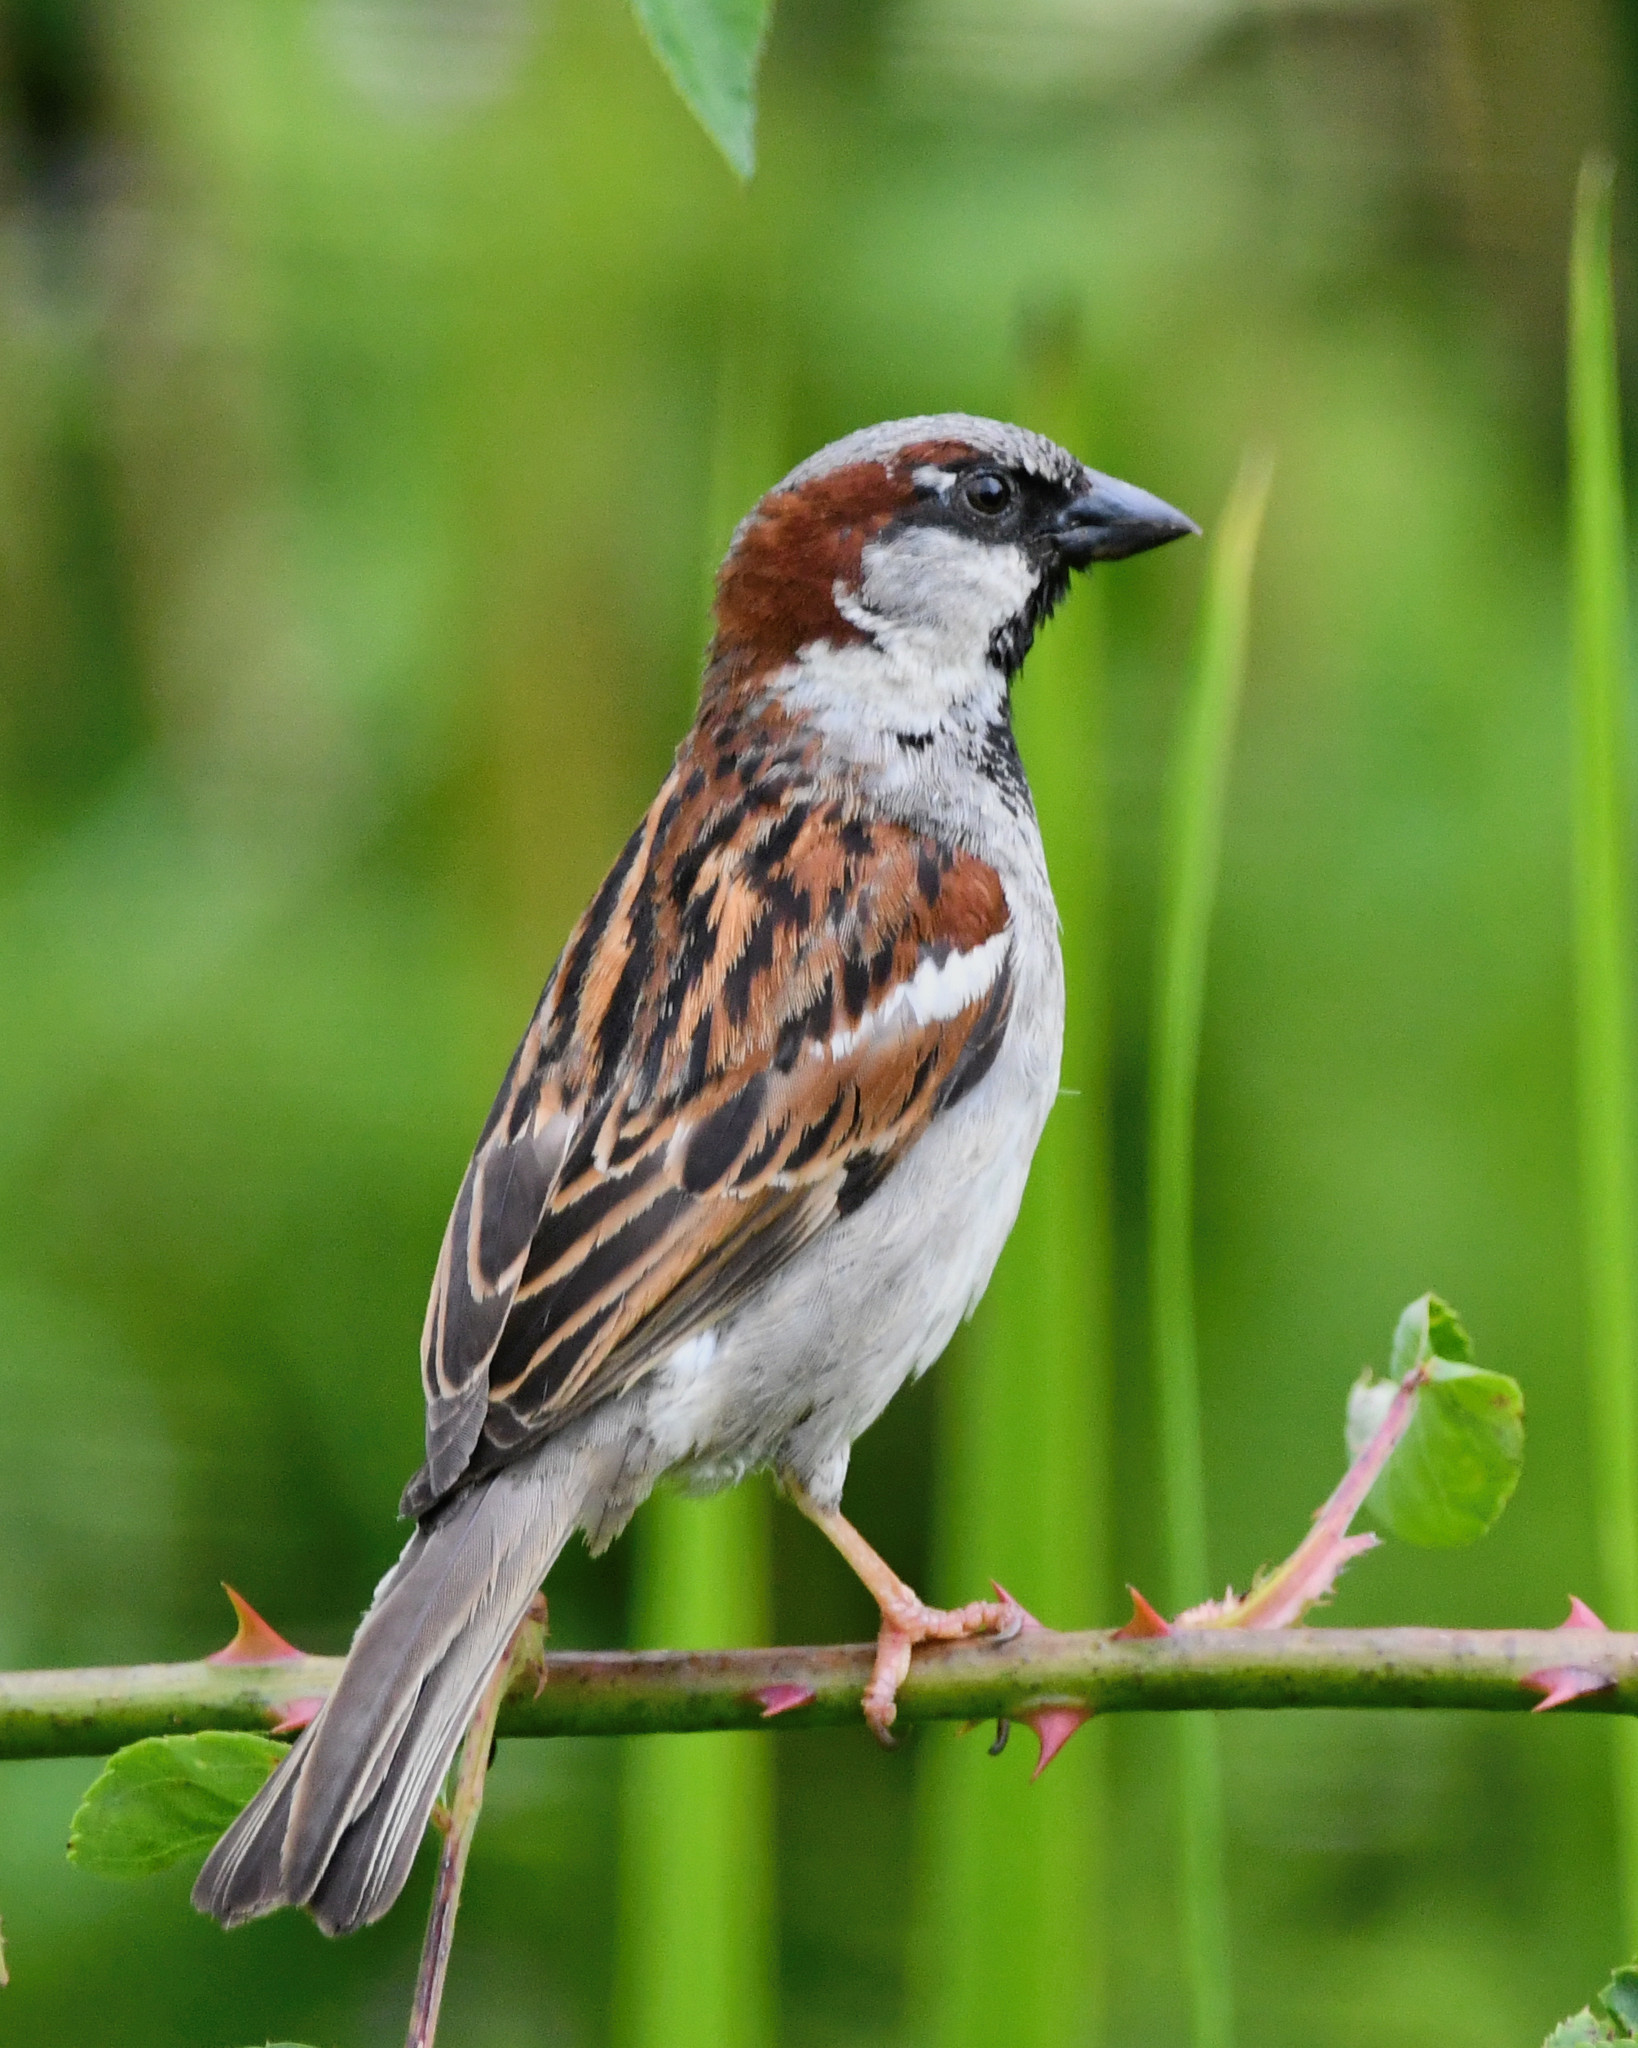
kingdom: Animalia
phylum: Chordata
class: Aves
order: Passeriformes
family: Passeridae
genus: Passer
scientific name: Passer domesticus
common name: House sparrow
